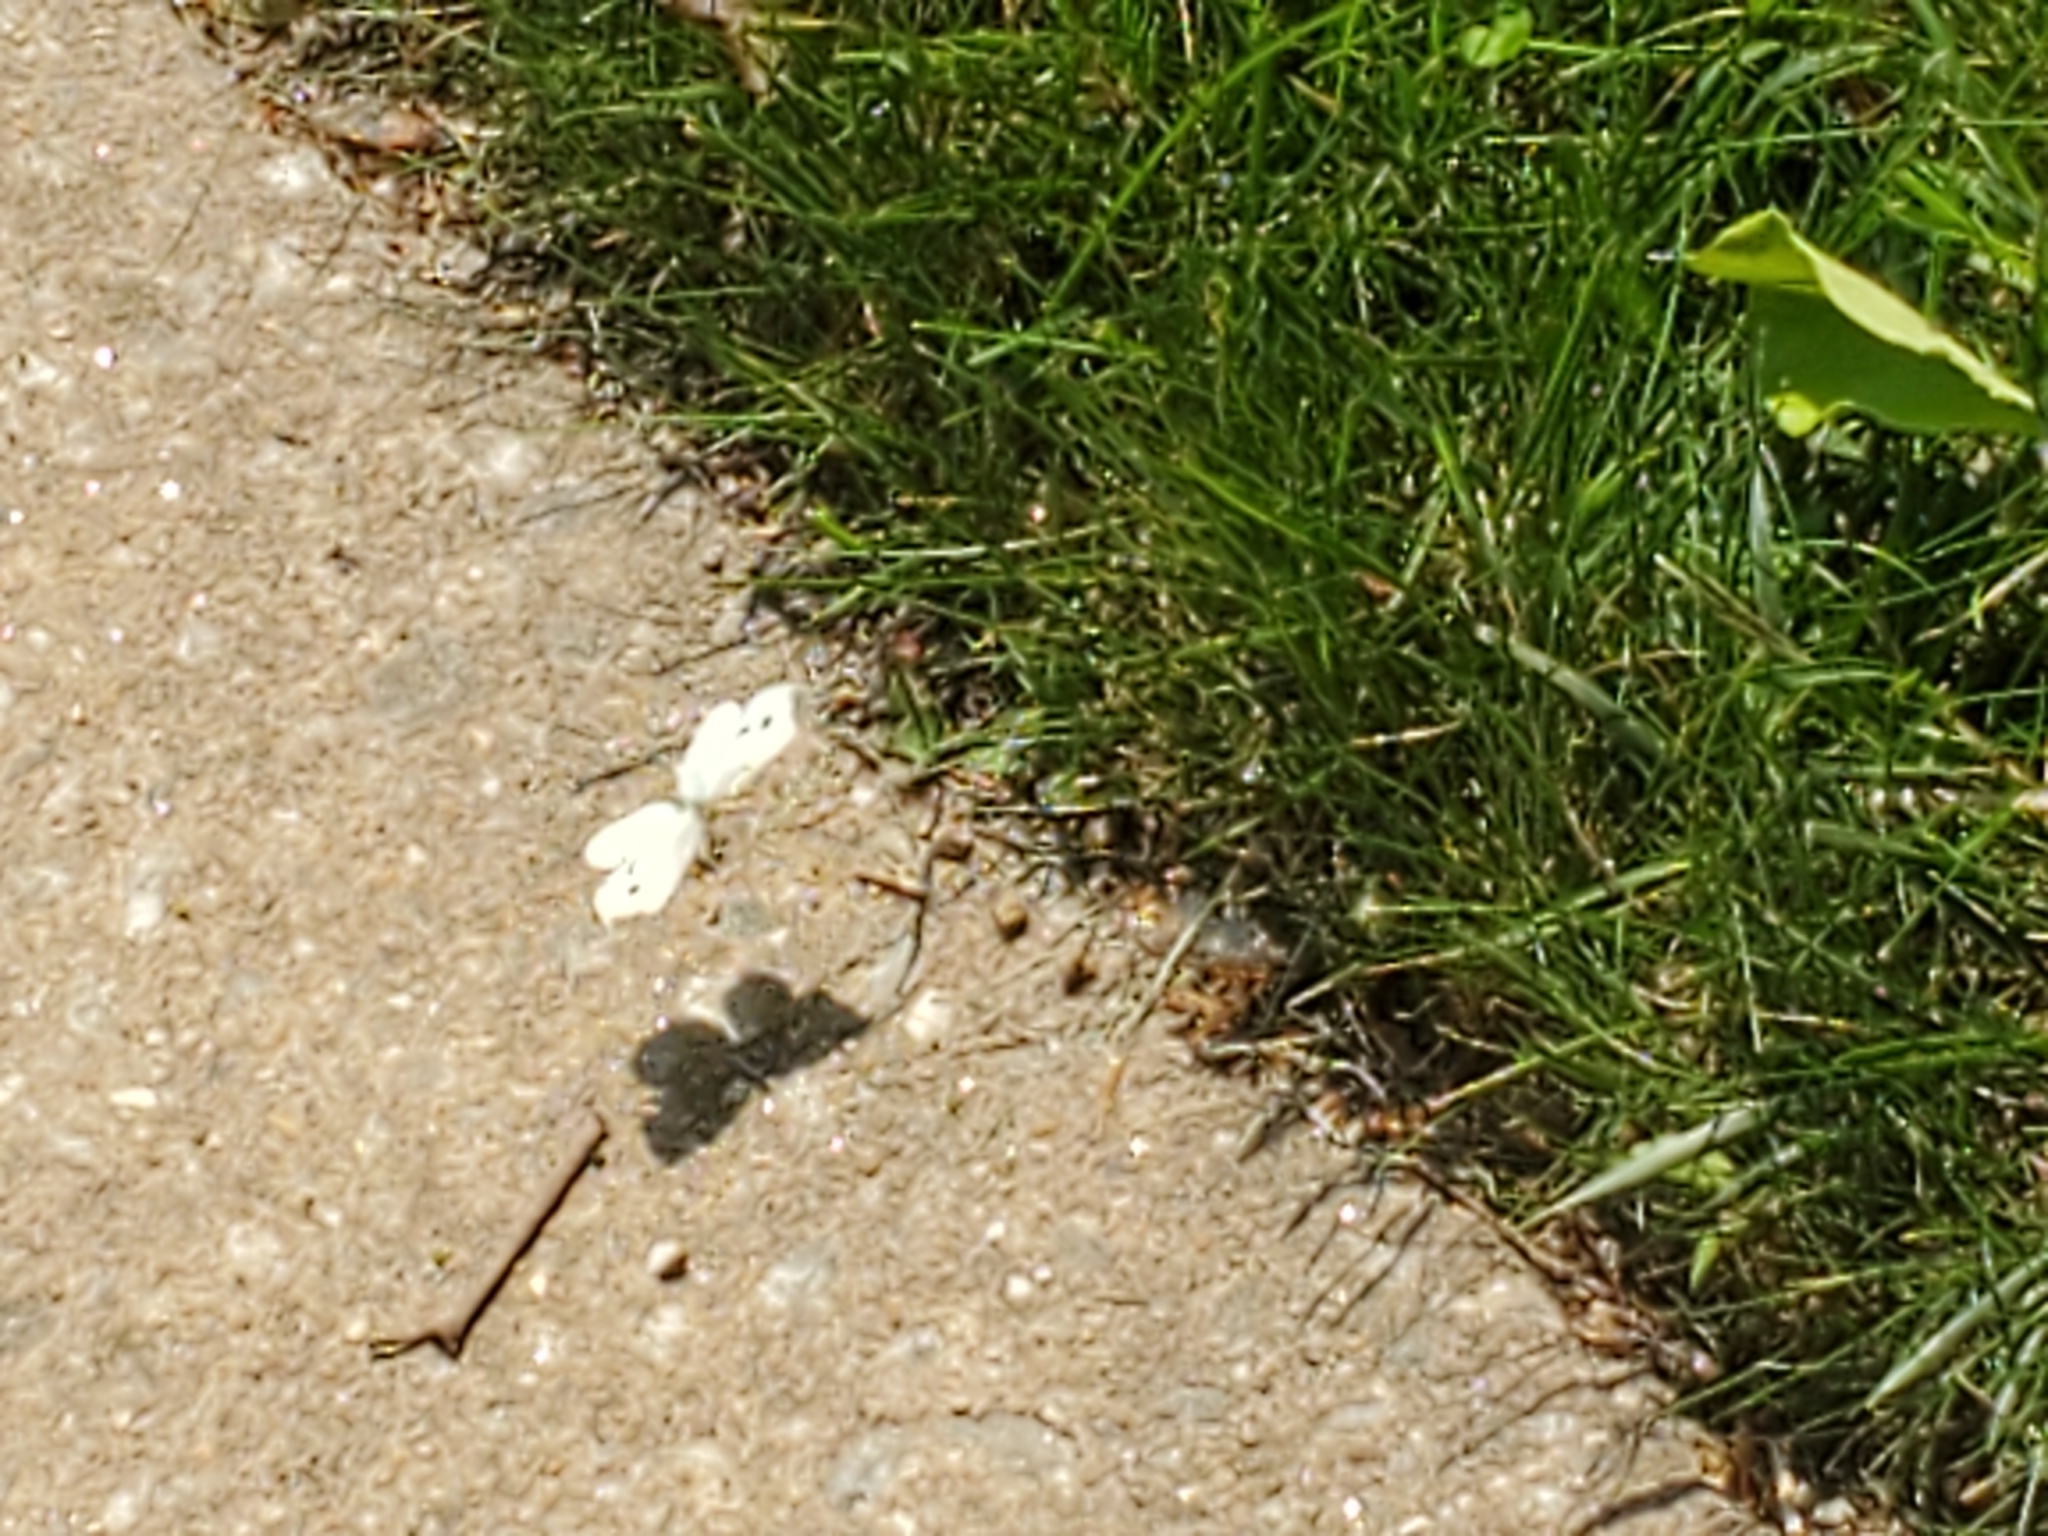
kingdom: Animalia
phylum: Arthropoda
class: Insecta
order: Lepidoptera
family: Pieridae
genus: Pieris
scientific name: Pieris rapae
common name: Small white
